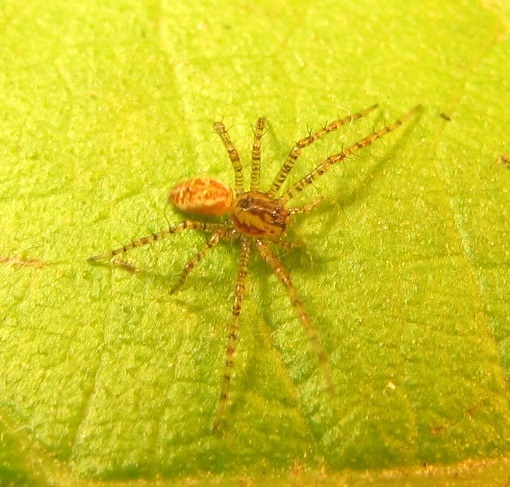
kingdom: Animalia
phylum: Arthropoda
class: Arachnida
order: Araneae
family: Oxyopidae
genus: Peucetia
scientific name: Peucetia viridans
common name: Lynx spiders
